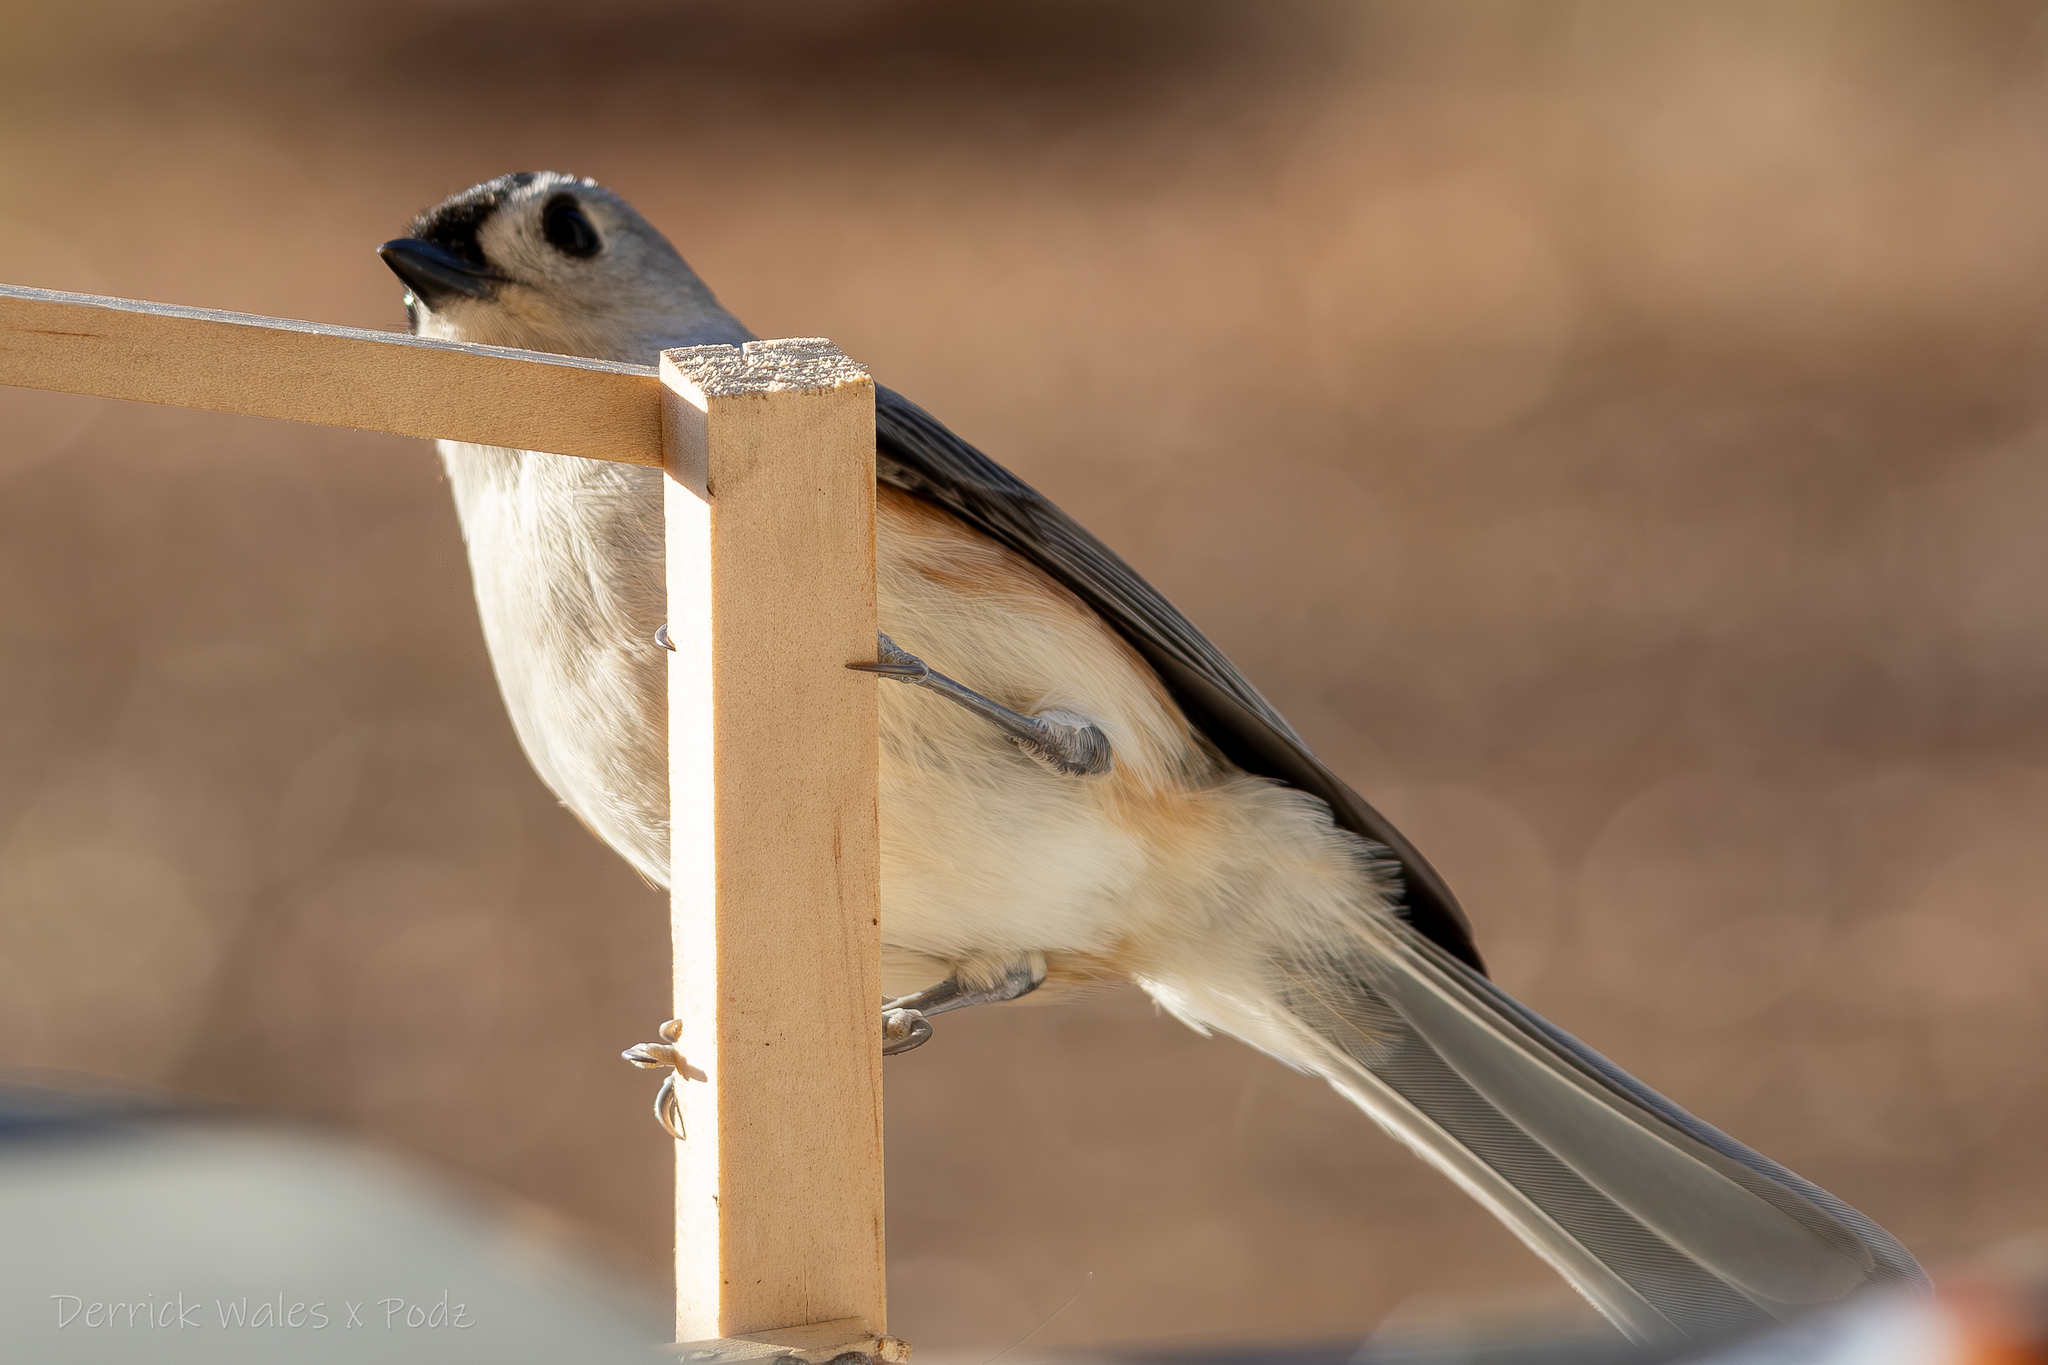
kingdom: Animalia
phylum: Chordata
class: Aves
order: Passeriformes
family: Paridae
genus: Baeolophus
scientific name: Baeolophus bicolor
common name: Tufted titmouse
